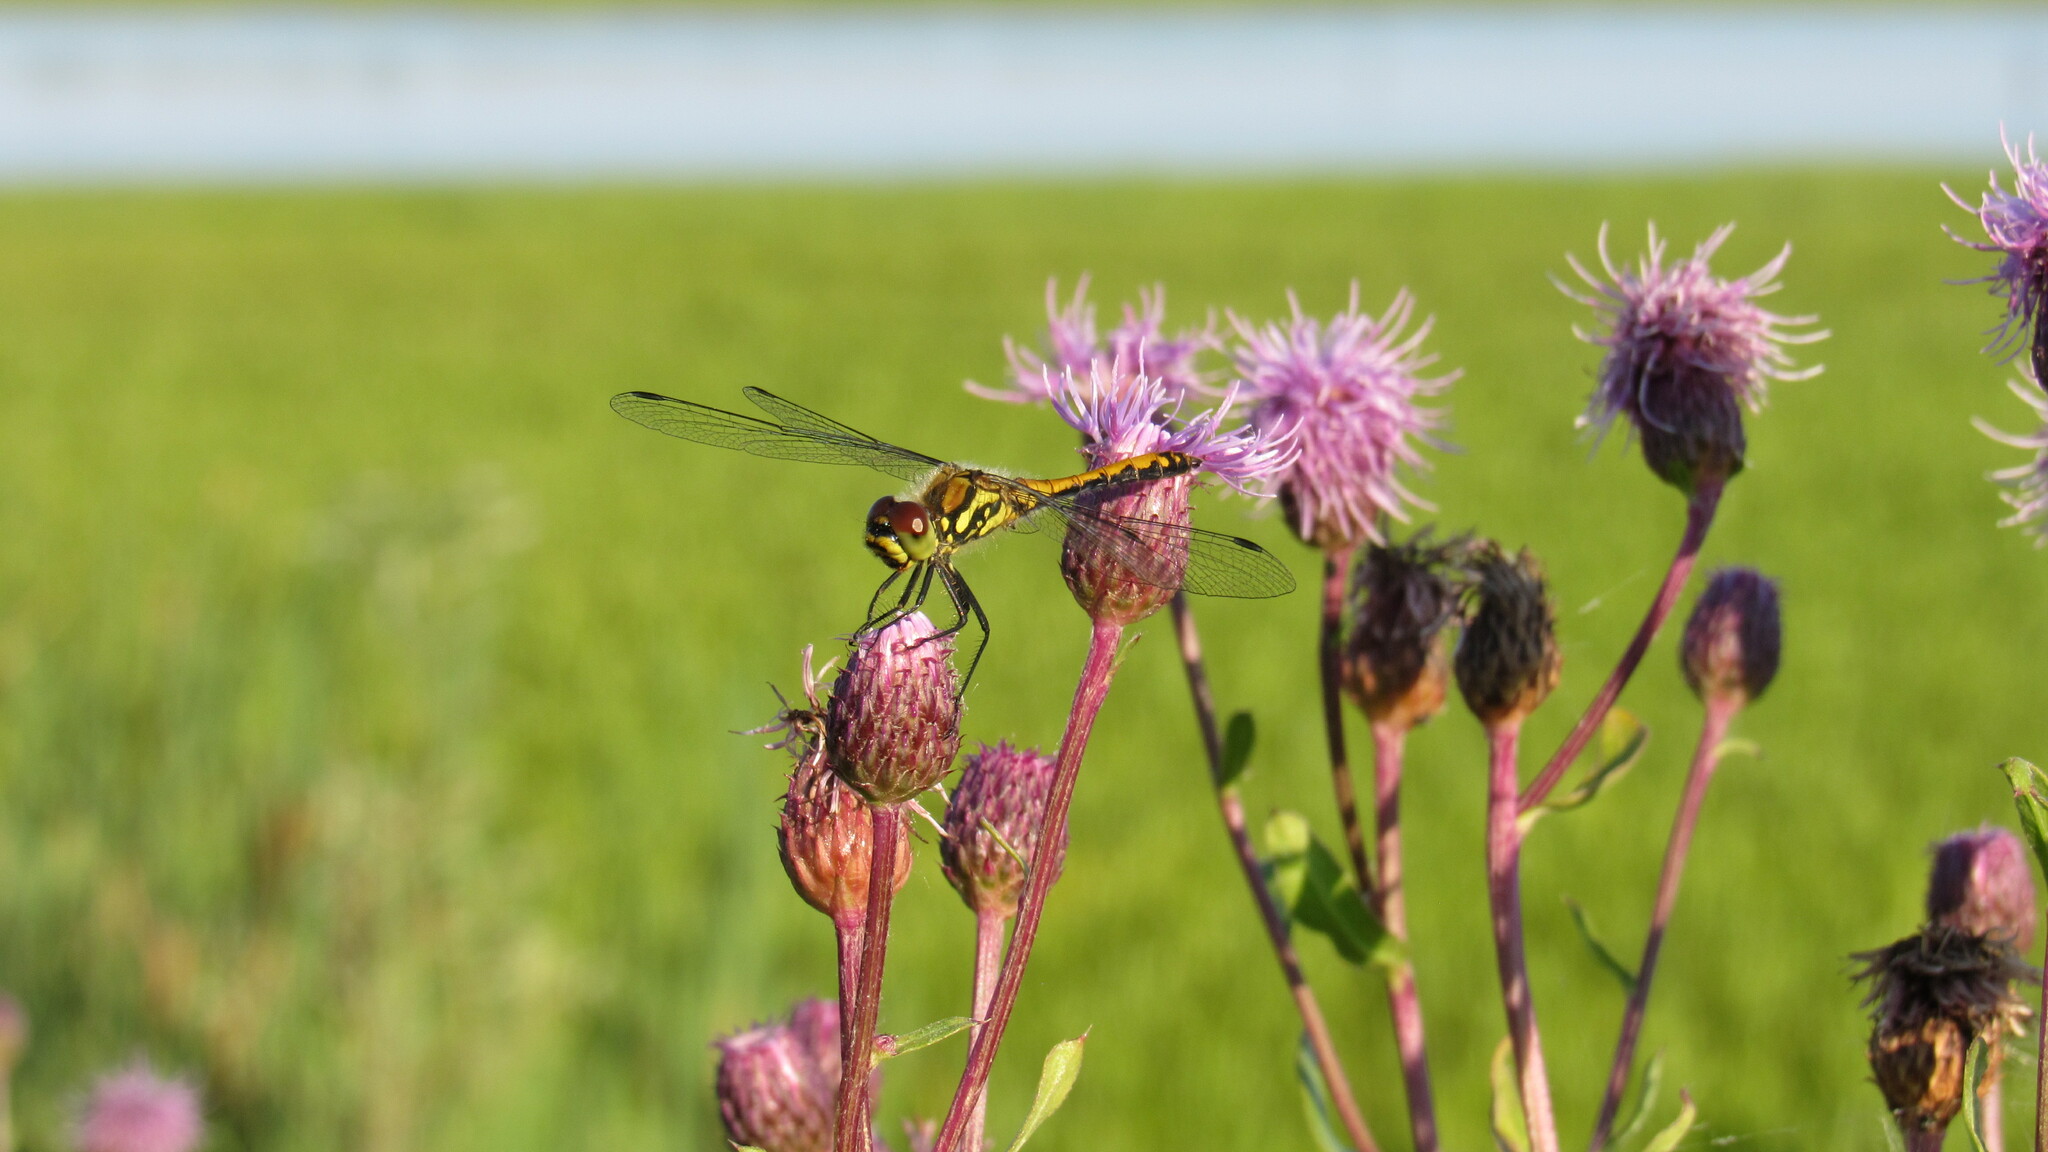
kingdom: Animalia
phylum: Arthropoda
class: Insecta
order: Odonata
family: Libellulidae
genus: Sympetrum
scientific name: Sympetrum danae
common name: Black darter
